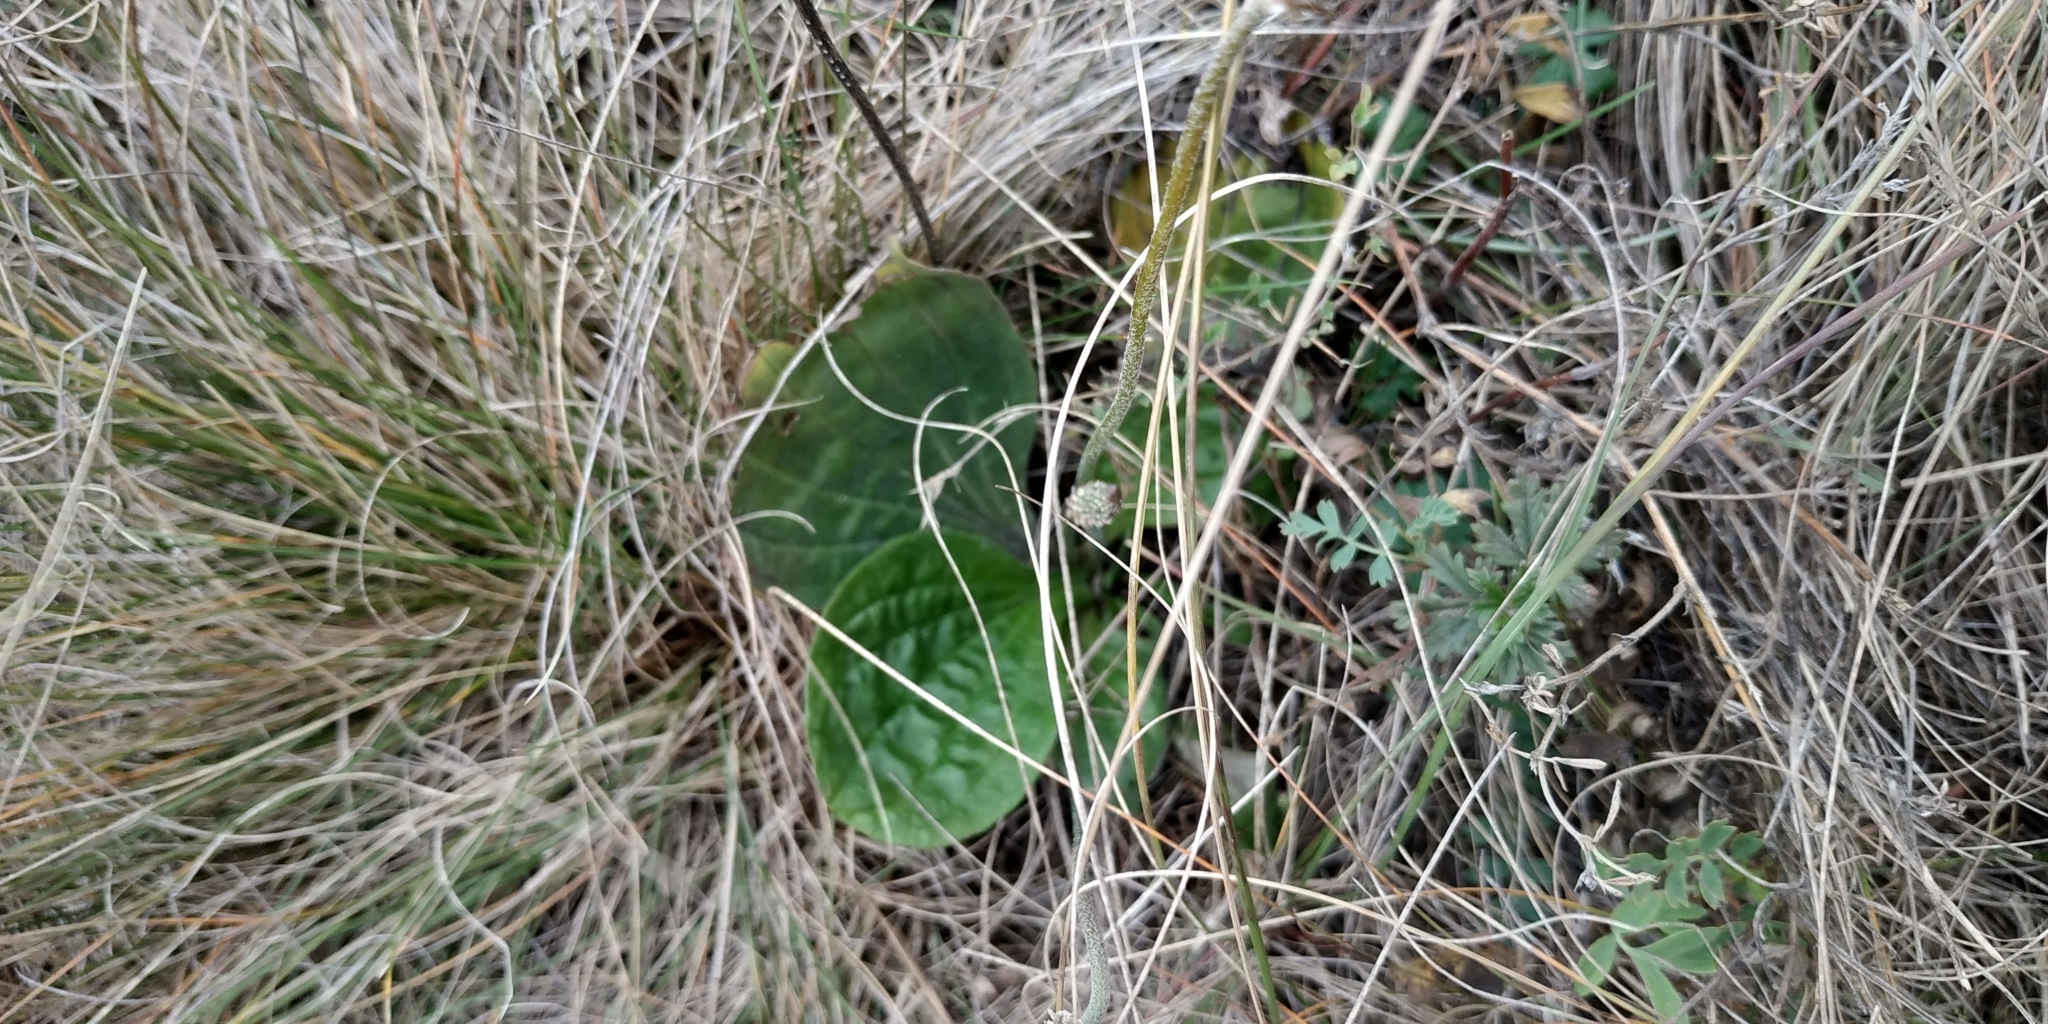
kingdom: Plantae
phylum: Tracheophyta
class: Magnoliopsida
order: Lamiales
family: Plantaginaceae
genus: Plantago
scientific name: Plantago cornuti
